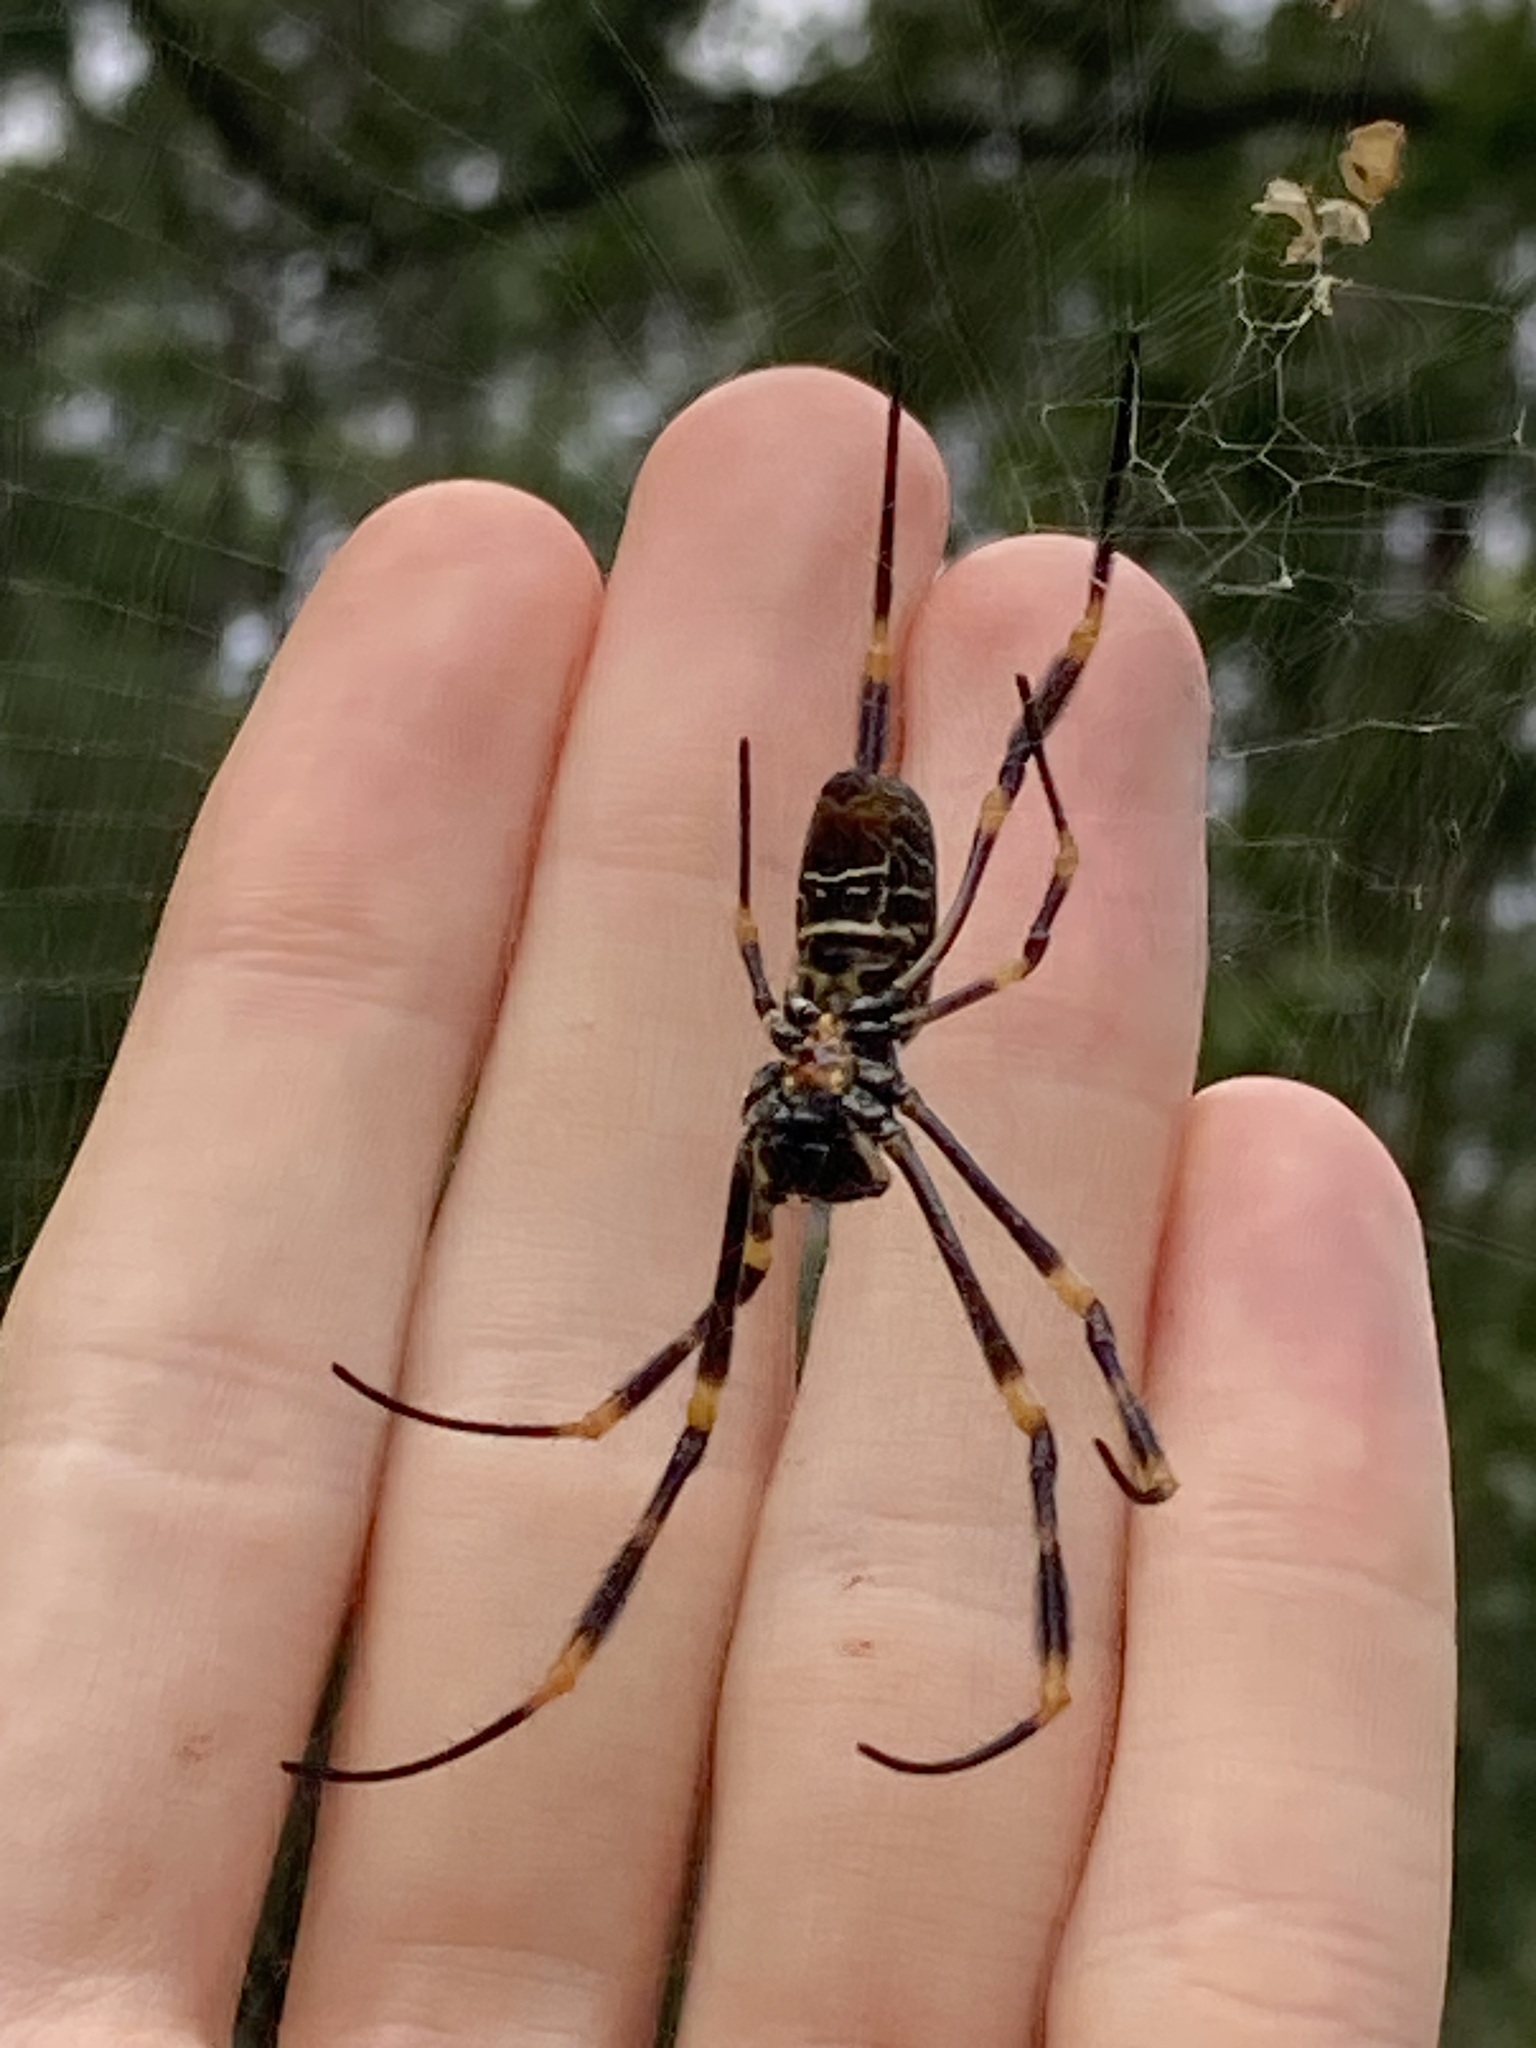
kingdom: Animalia
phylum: Arthropoda
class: Arachnida
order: Araneae
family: Araneidae
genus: Trichonephila
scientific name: Trichonephila plumipes
